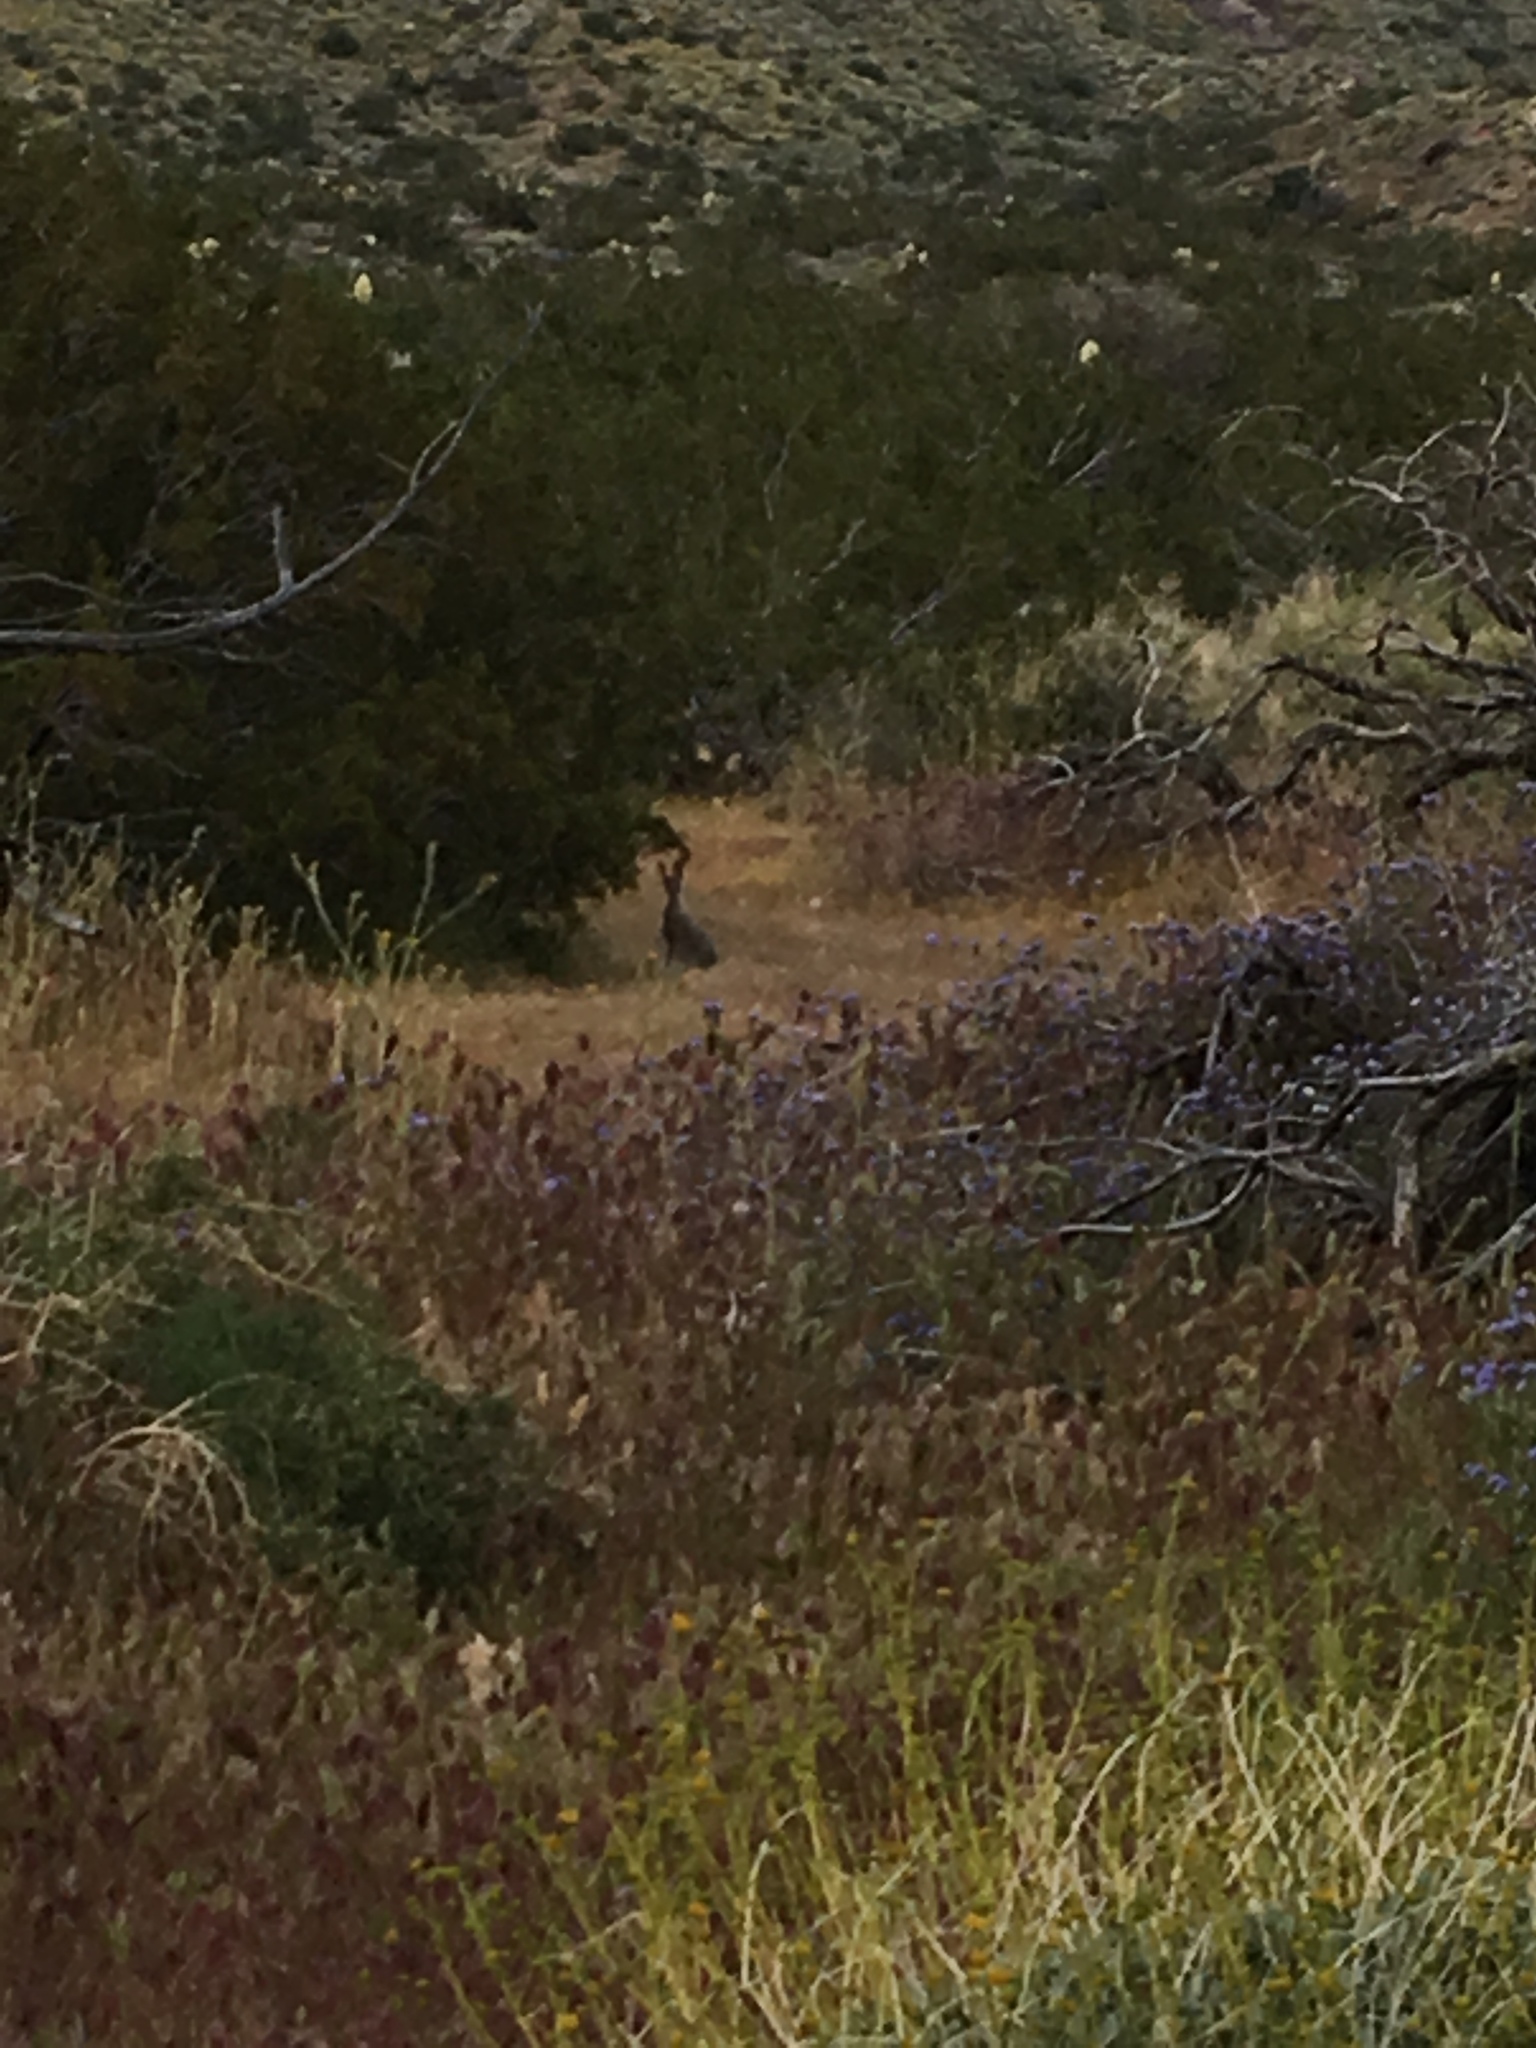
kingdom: Animalia
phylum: Chordata
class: Mammalia
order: Lagomorpha
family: Leporidae
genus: Lepus
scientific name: Lepus californicus
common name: Black-tailed jackrabbit
